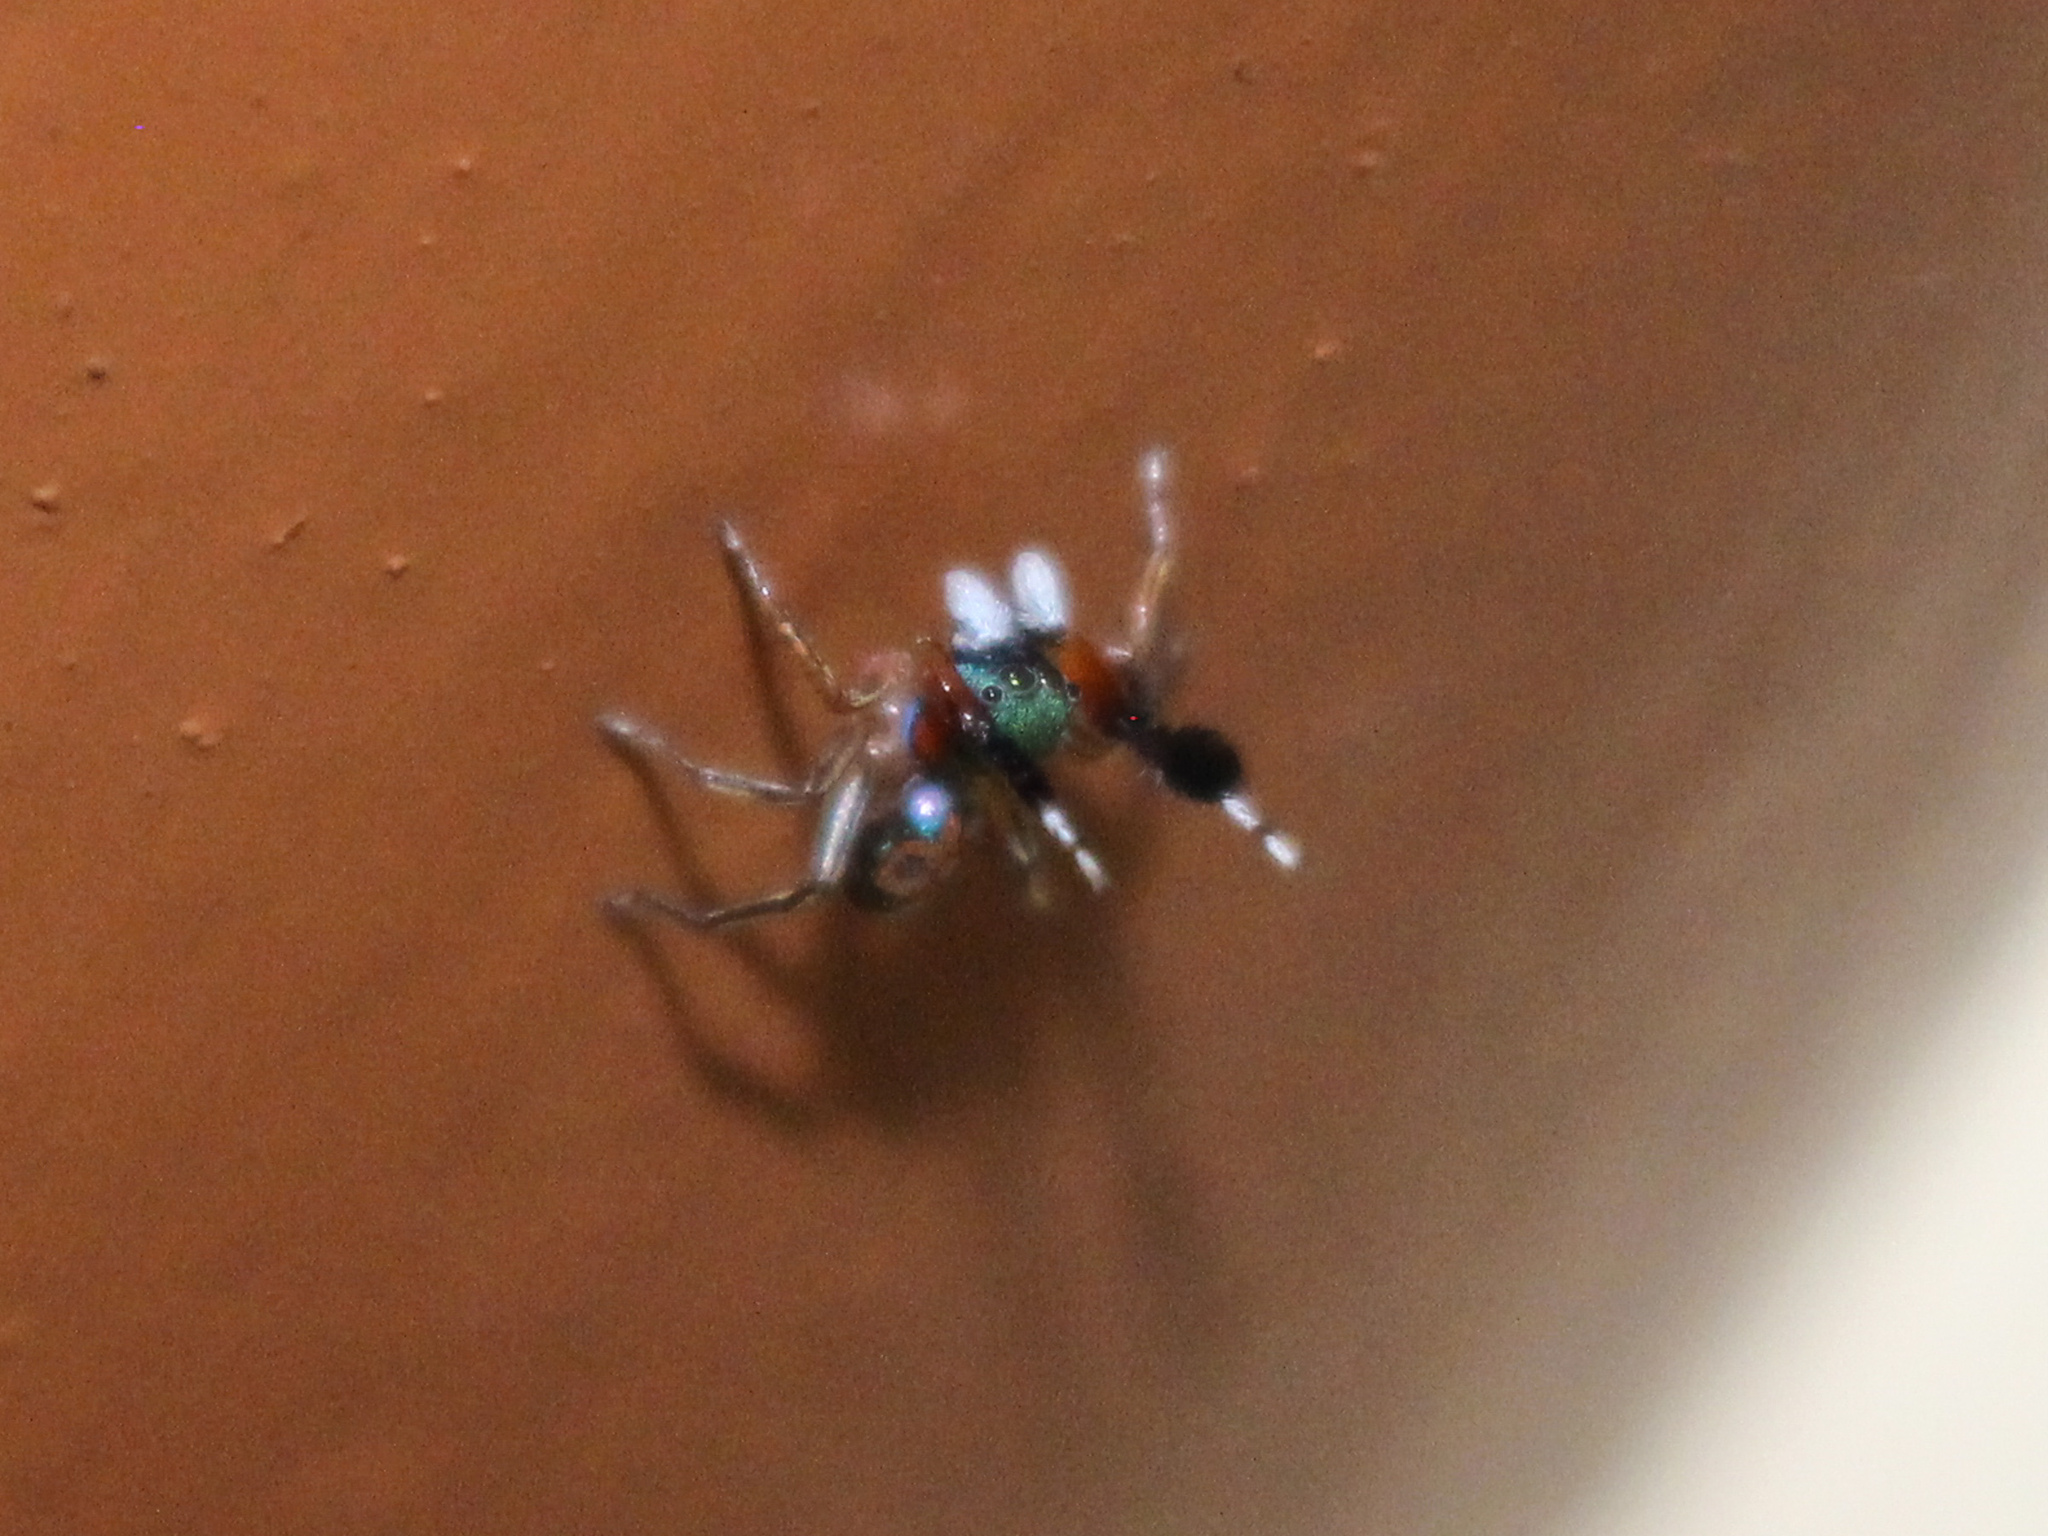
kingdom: Animalia
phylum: Arthropoda
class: Arachnida
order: Araneae
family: Salticidae
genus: Siler
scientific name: Siler semiglaucus
